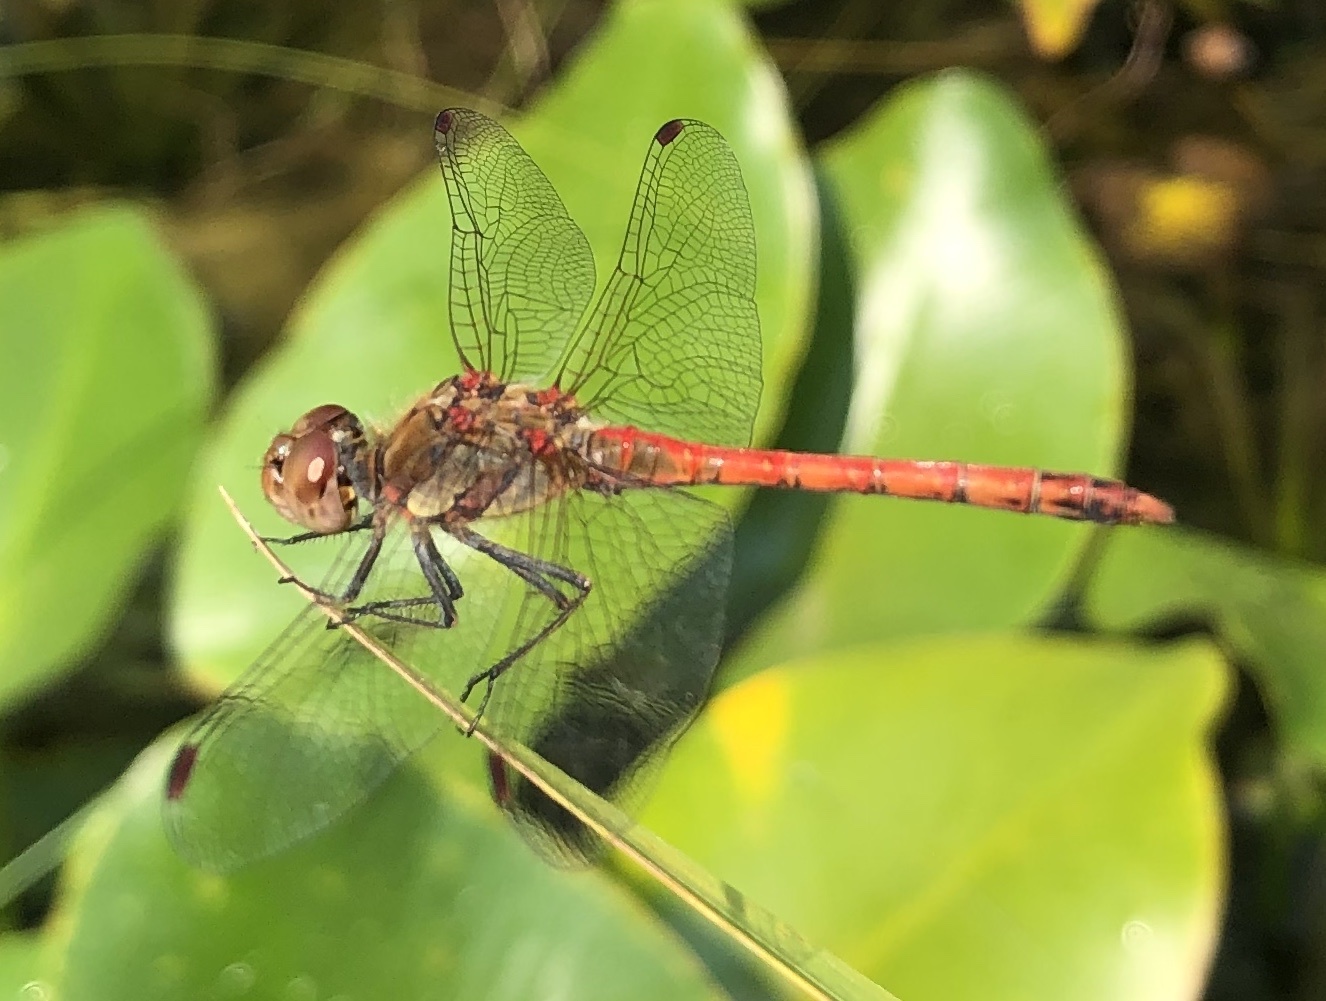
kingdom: Animalia
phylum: Arthropoda
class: Insecta
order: Odonata
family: Libellulidae
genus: Sympetrum
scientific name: Sympetrum striolatum
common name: Common darter
